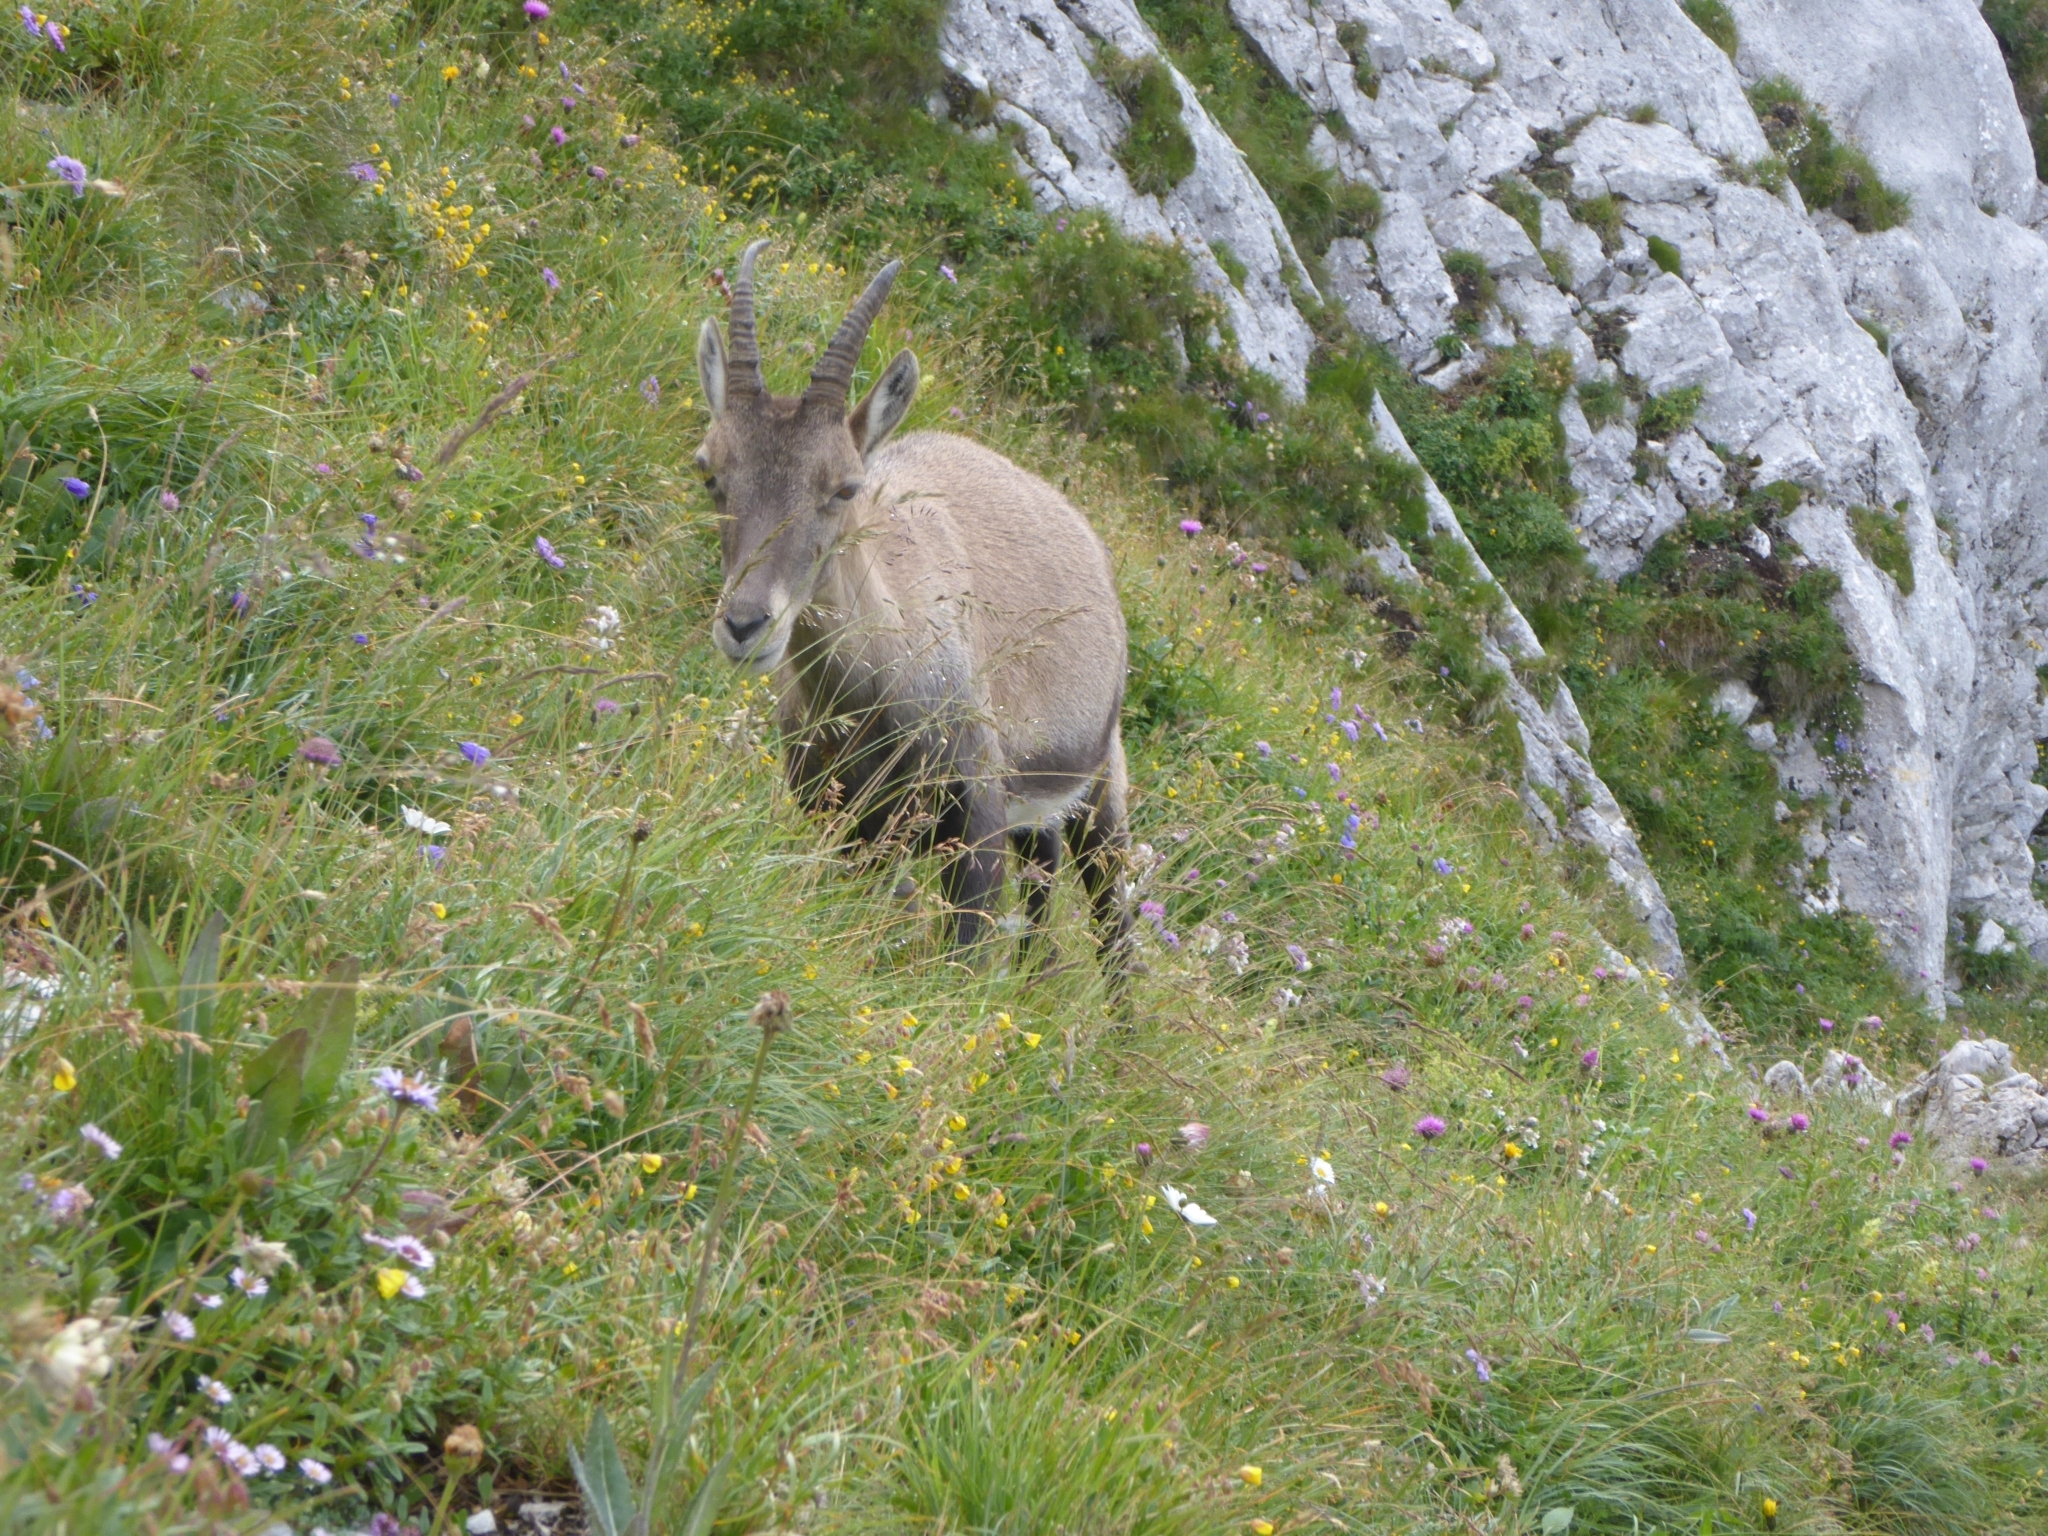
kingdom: Animalia
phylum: Chordata
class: Mammalia
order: Artiodactyla
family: Bovidae
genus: Capra
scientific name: Capra ibex
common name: Alpine ibex
